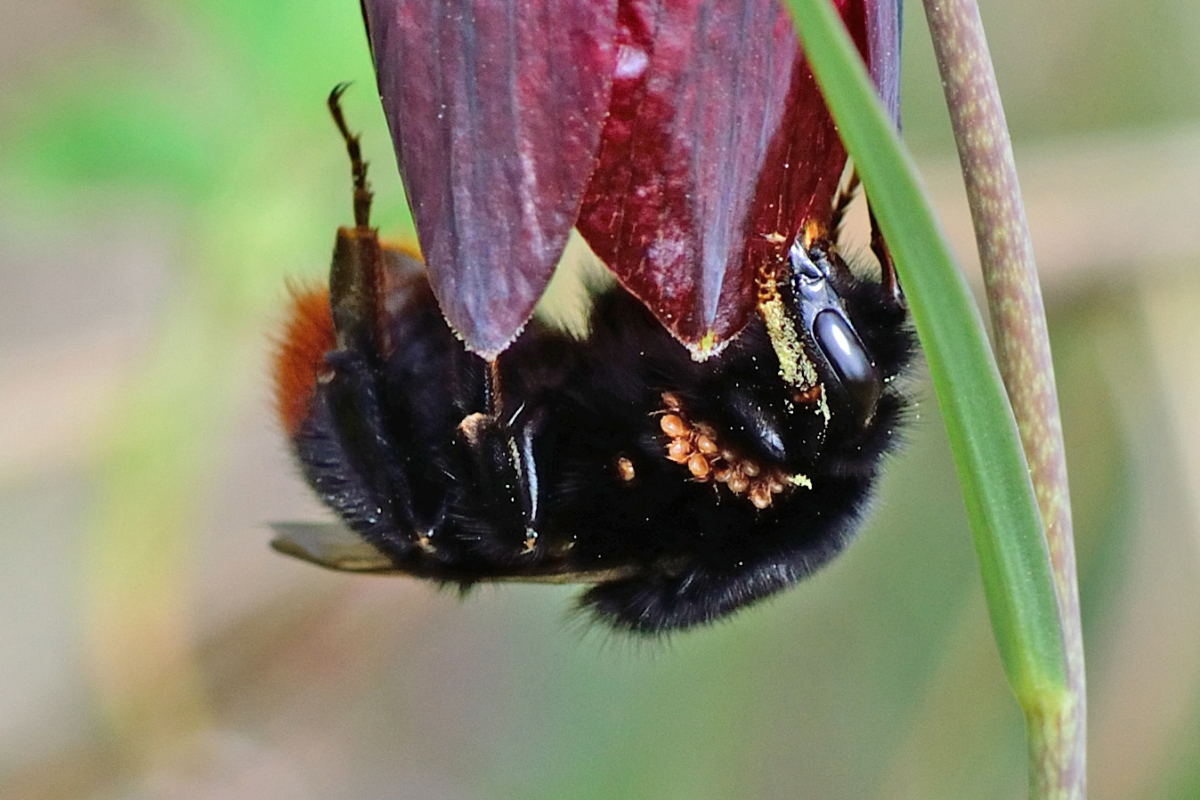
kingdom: Animalia
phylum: Arthropoda
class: Insecta
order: Hymenoptera
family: Apidae
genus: Bombus
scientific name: Bombus lapidarius
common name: Large red-tailed humble-bee
